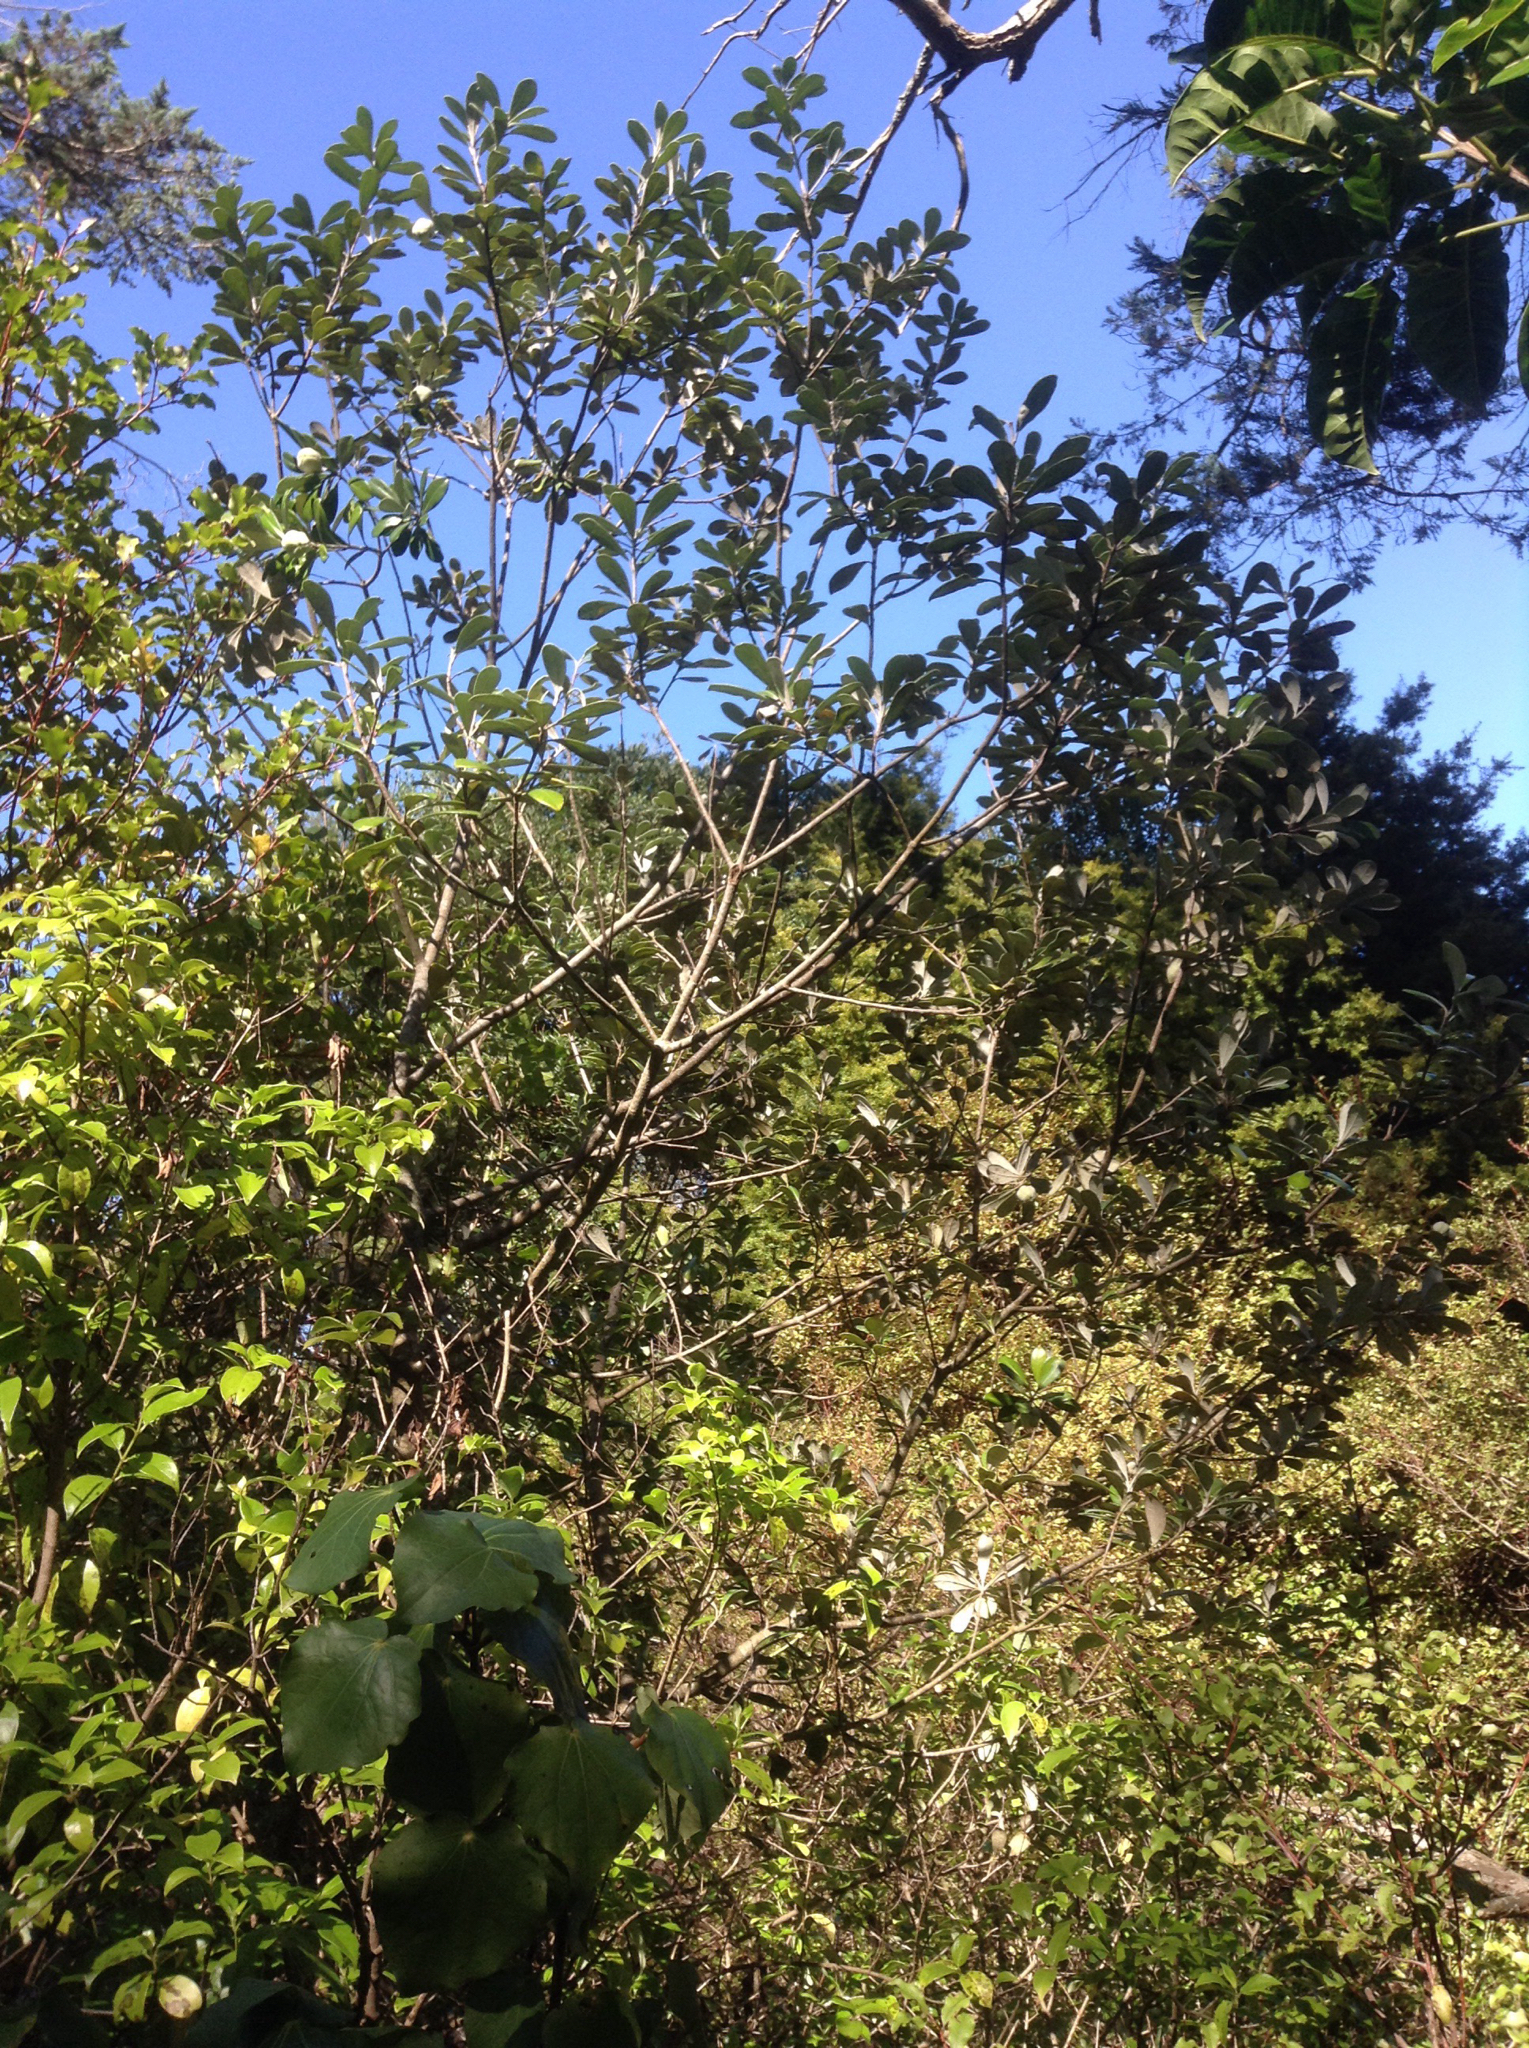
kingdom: Plantae
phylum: Tracheophyta
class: Magnoliopsida
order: Apiales
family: Pittosporaceae
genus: Pittosporum
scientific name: Pittosporum crassifolium
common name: Karo
